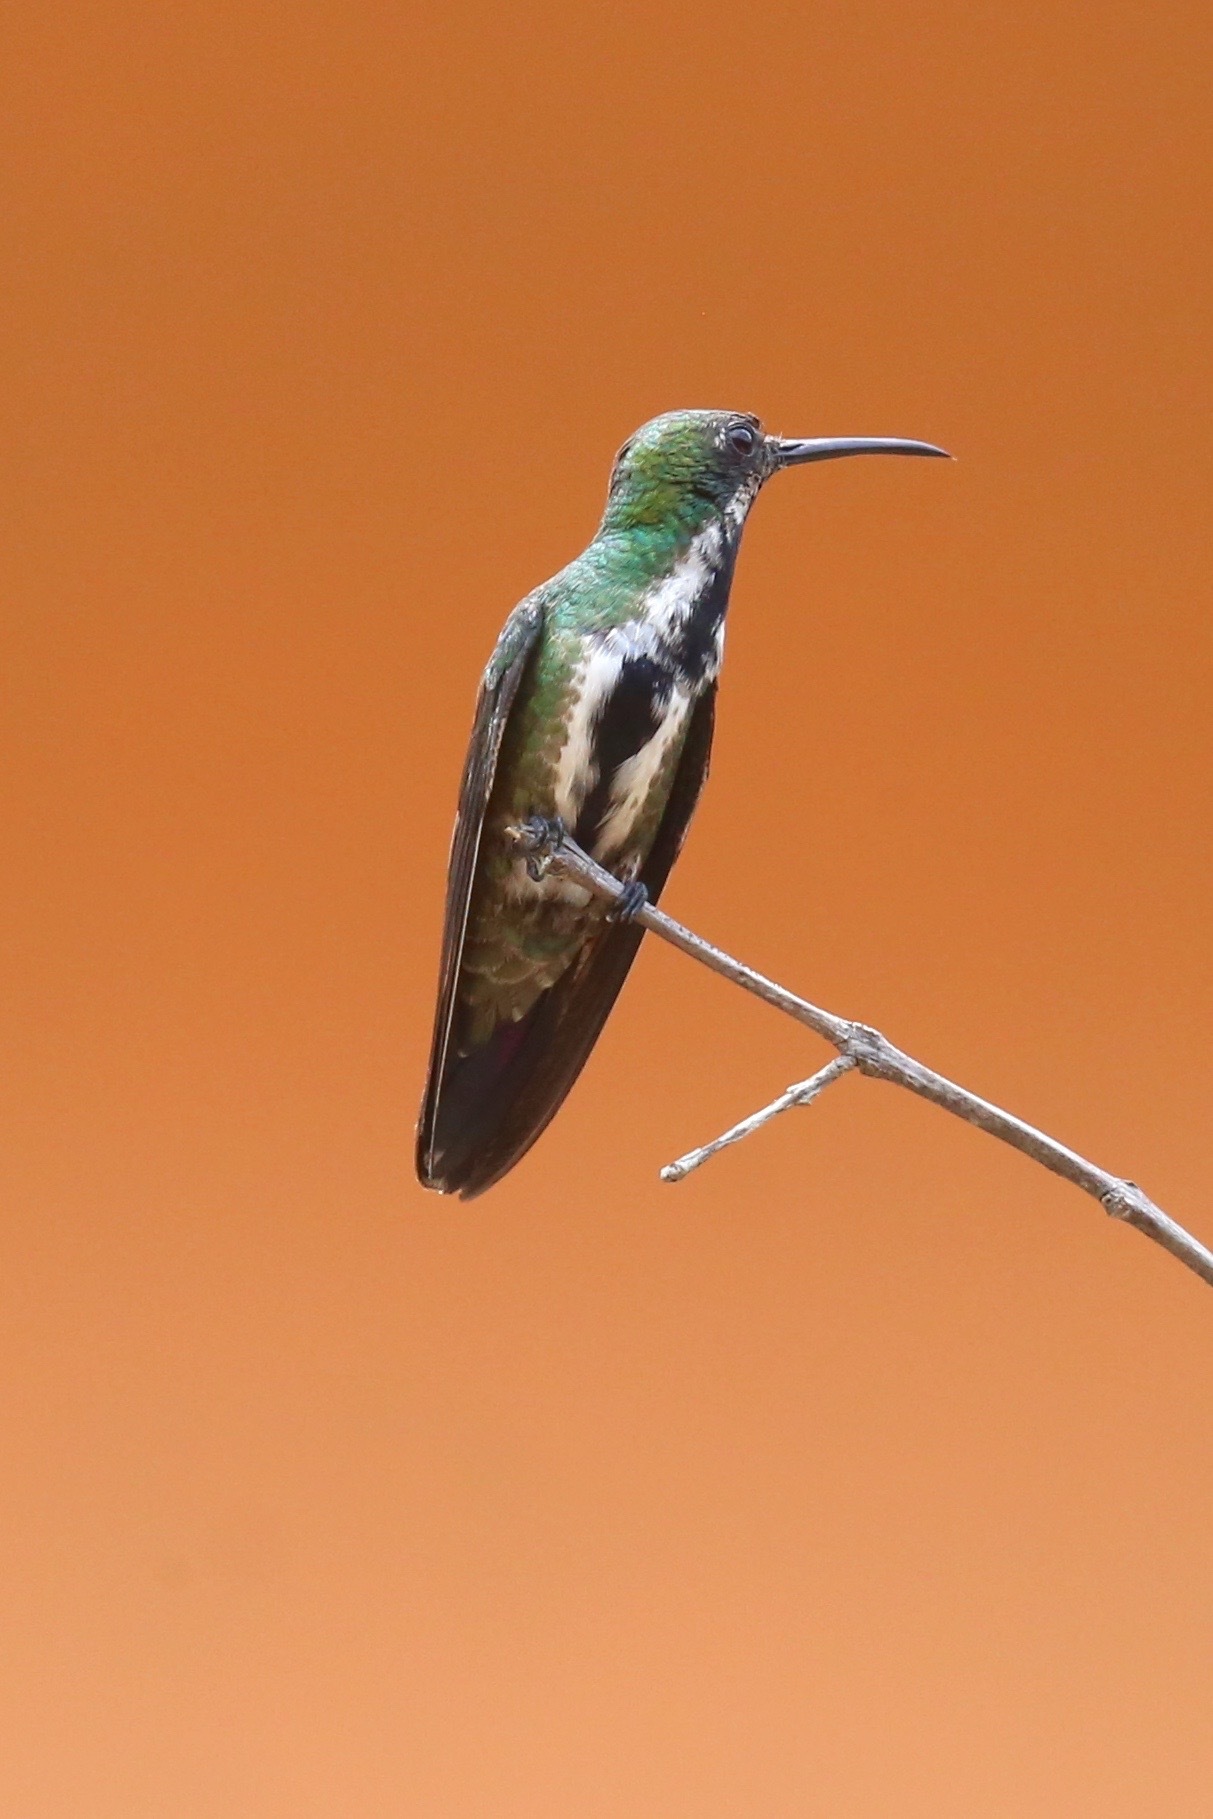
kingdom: Animalia
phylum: Chordata
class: Aves
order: Apodiformes
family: Trochilidae
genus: Anthracothorax
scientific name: Anthracothorax nigricollis
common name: Black-throated mango
